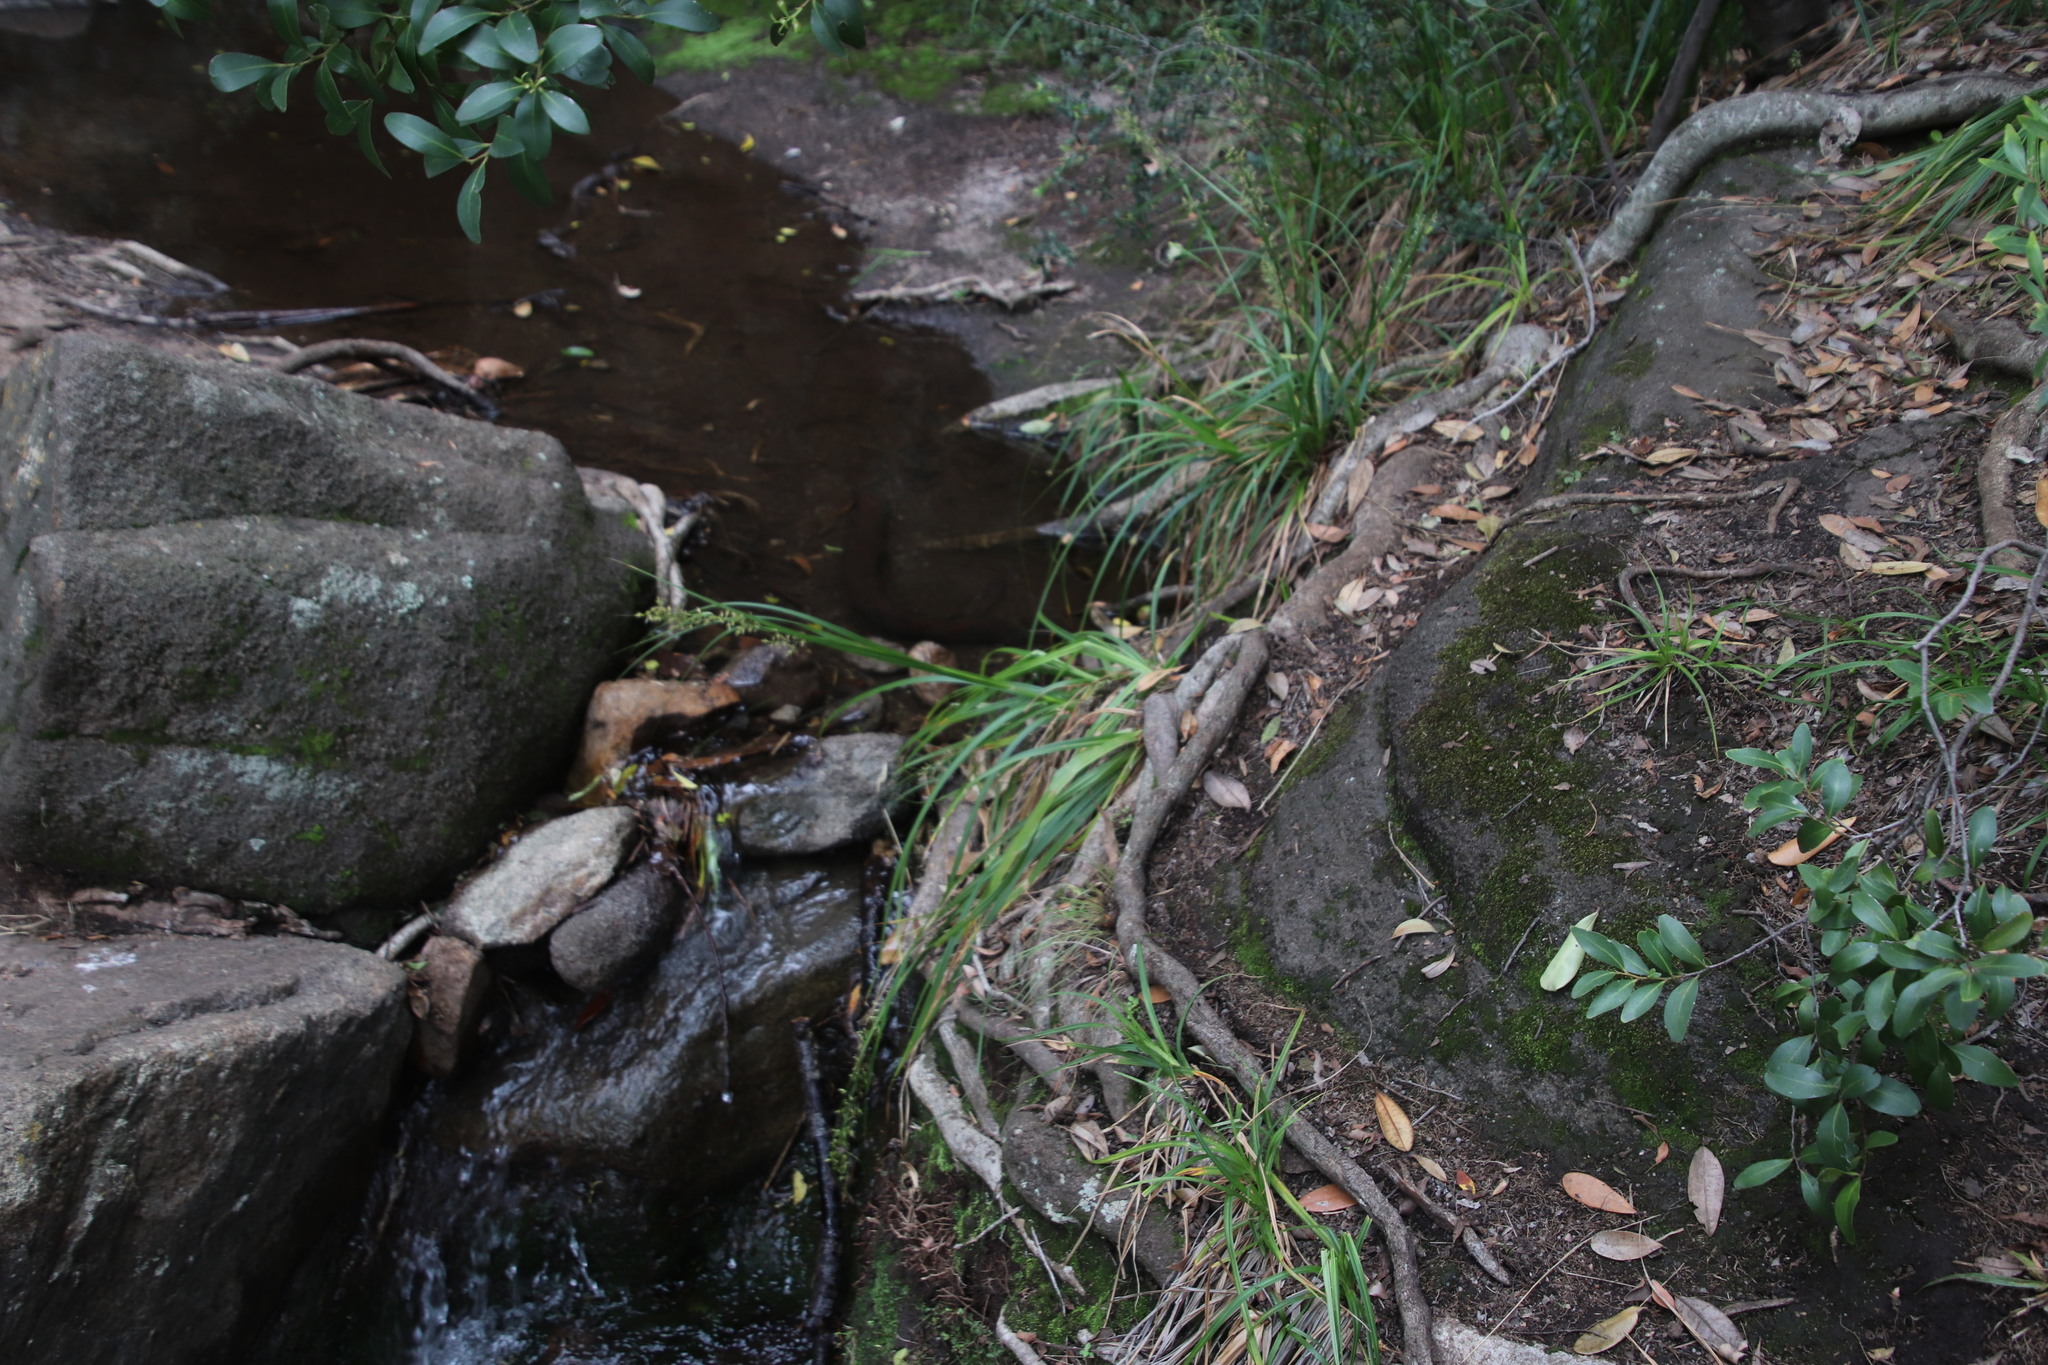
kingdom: Plantae
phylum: Tracheophyta
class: Liliopsida
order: Poales
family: Cyperaceae
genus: Carex
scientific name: Carex spicatopaniculata
